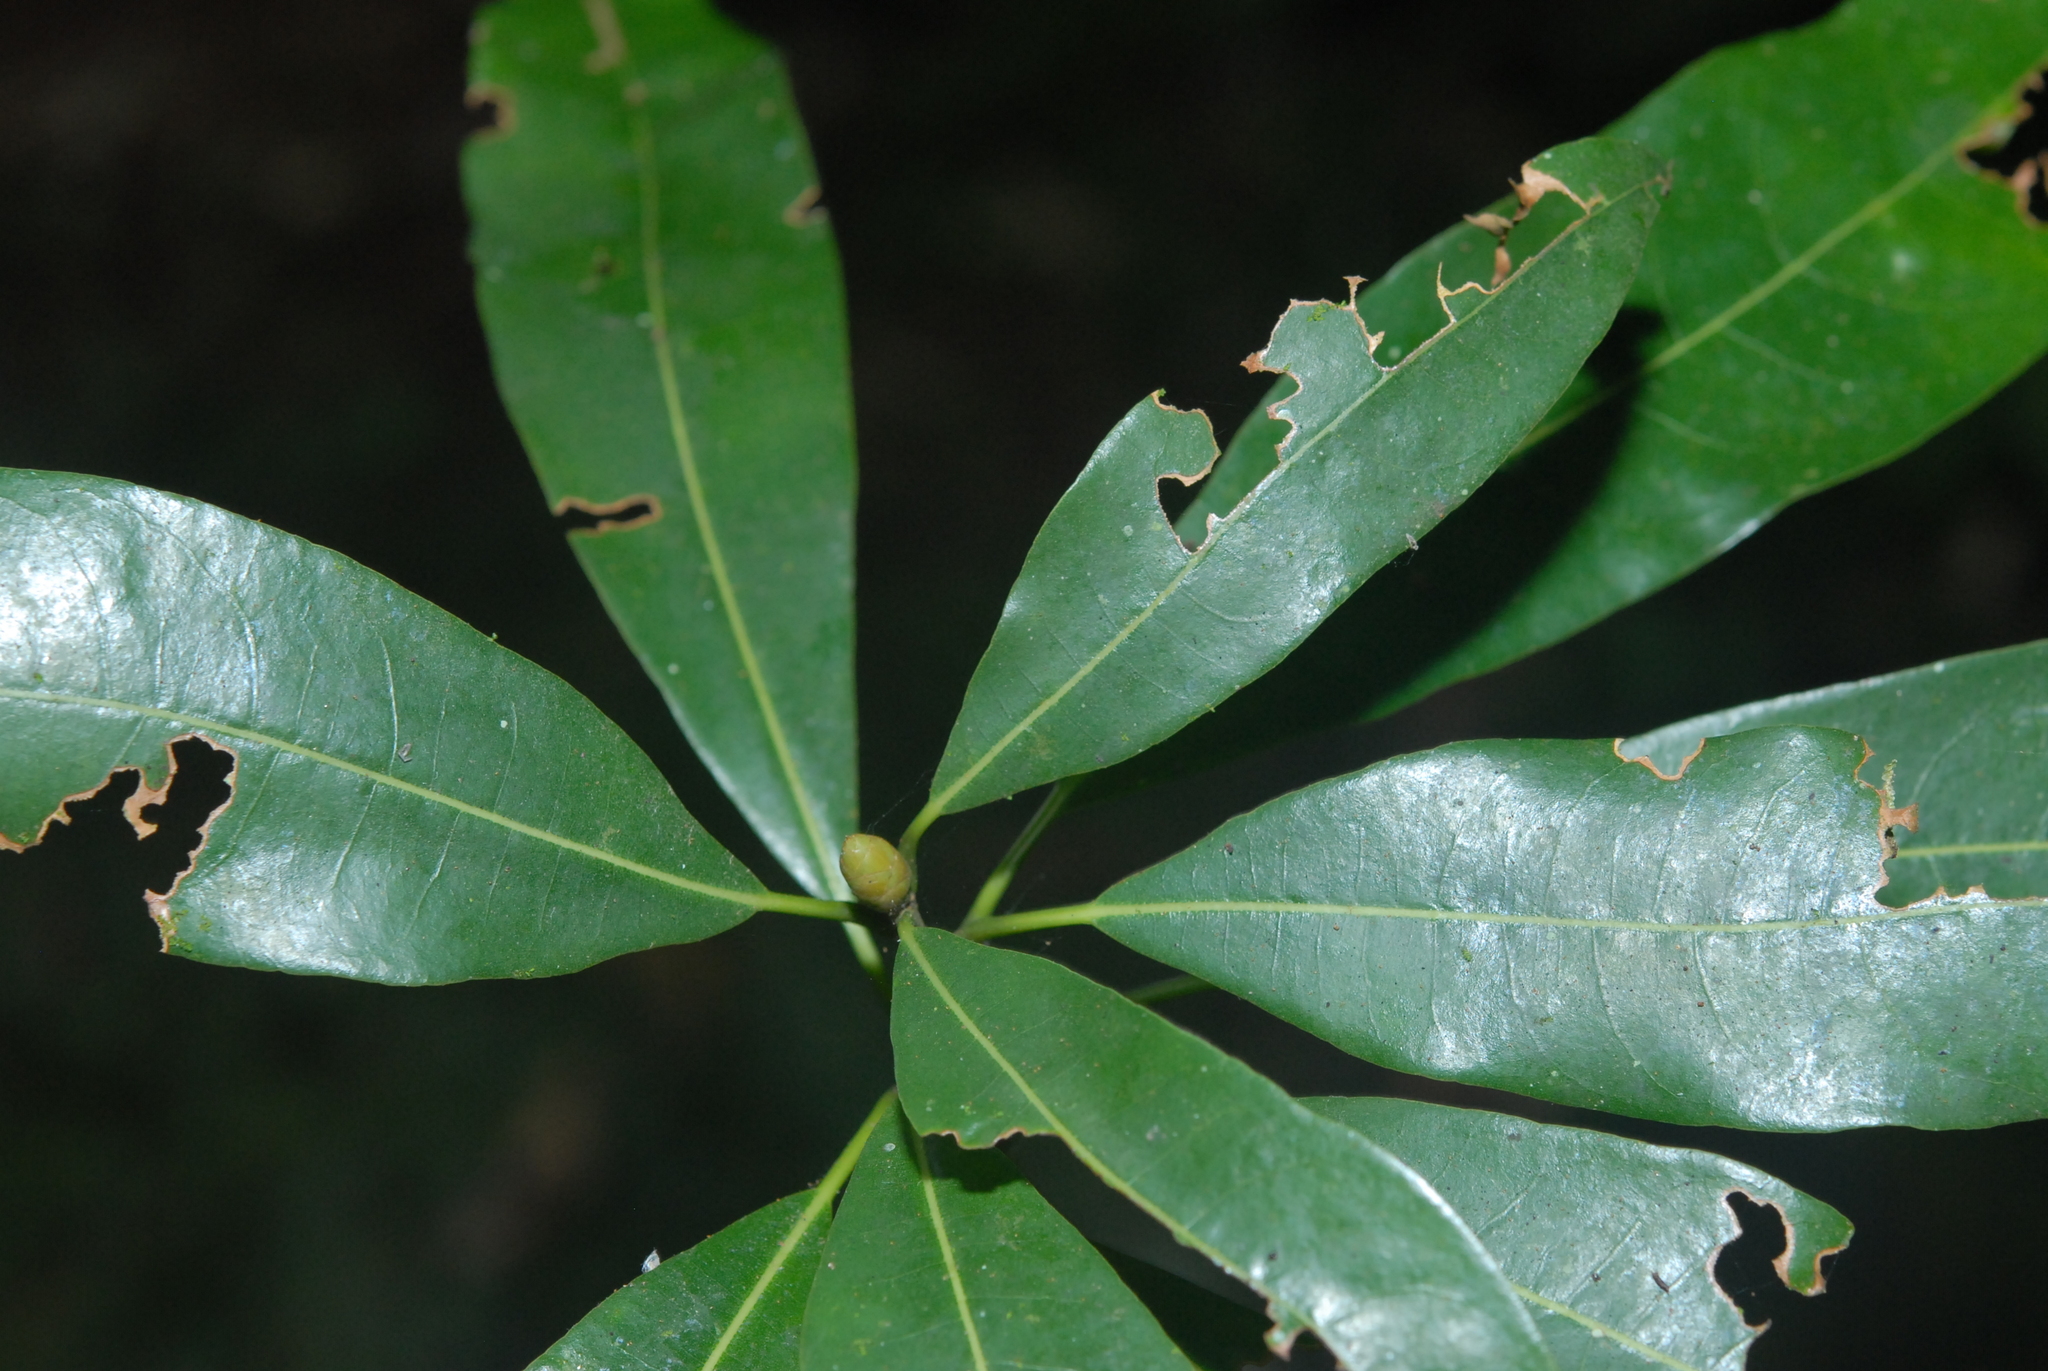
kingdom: Plantae
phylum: Tracheophyta
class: Magnoliopsida
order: Laurales
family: Lauraceae
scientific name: Lauraceae
